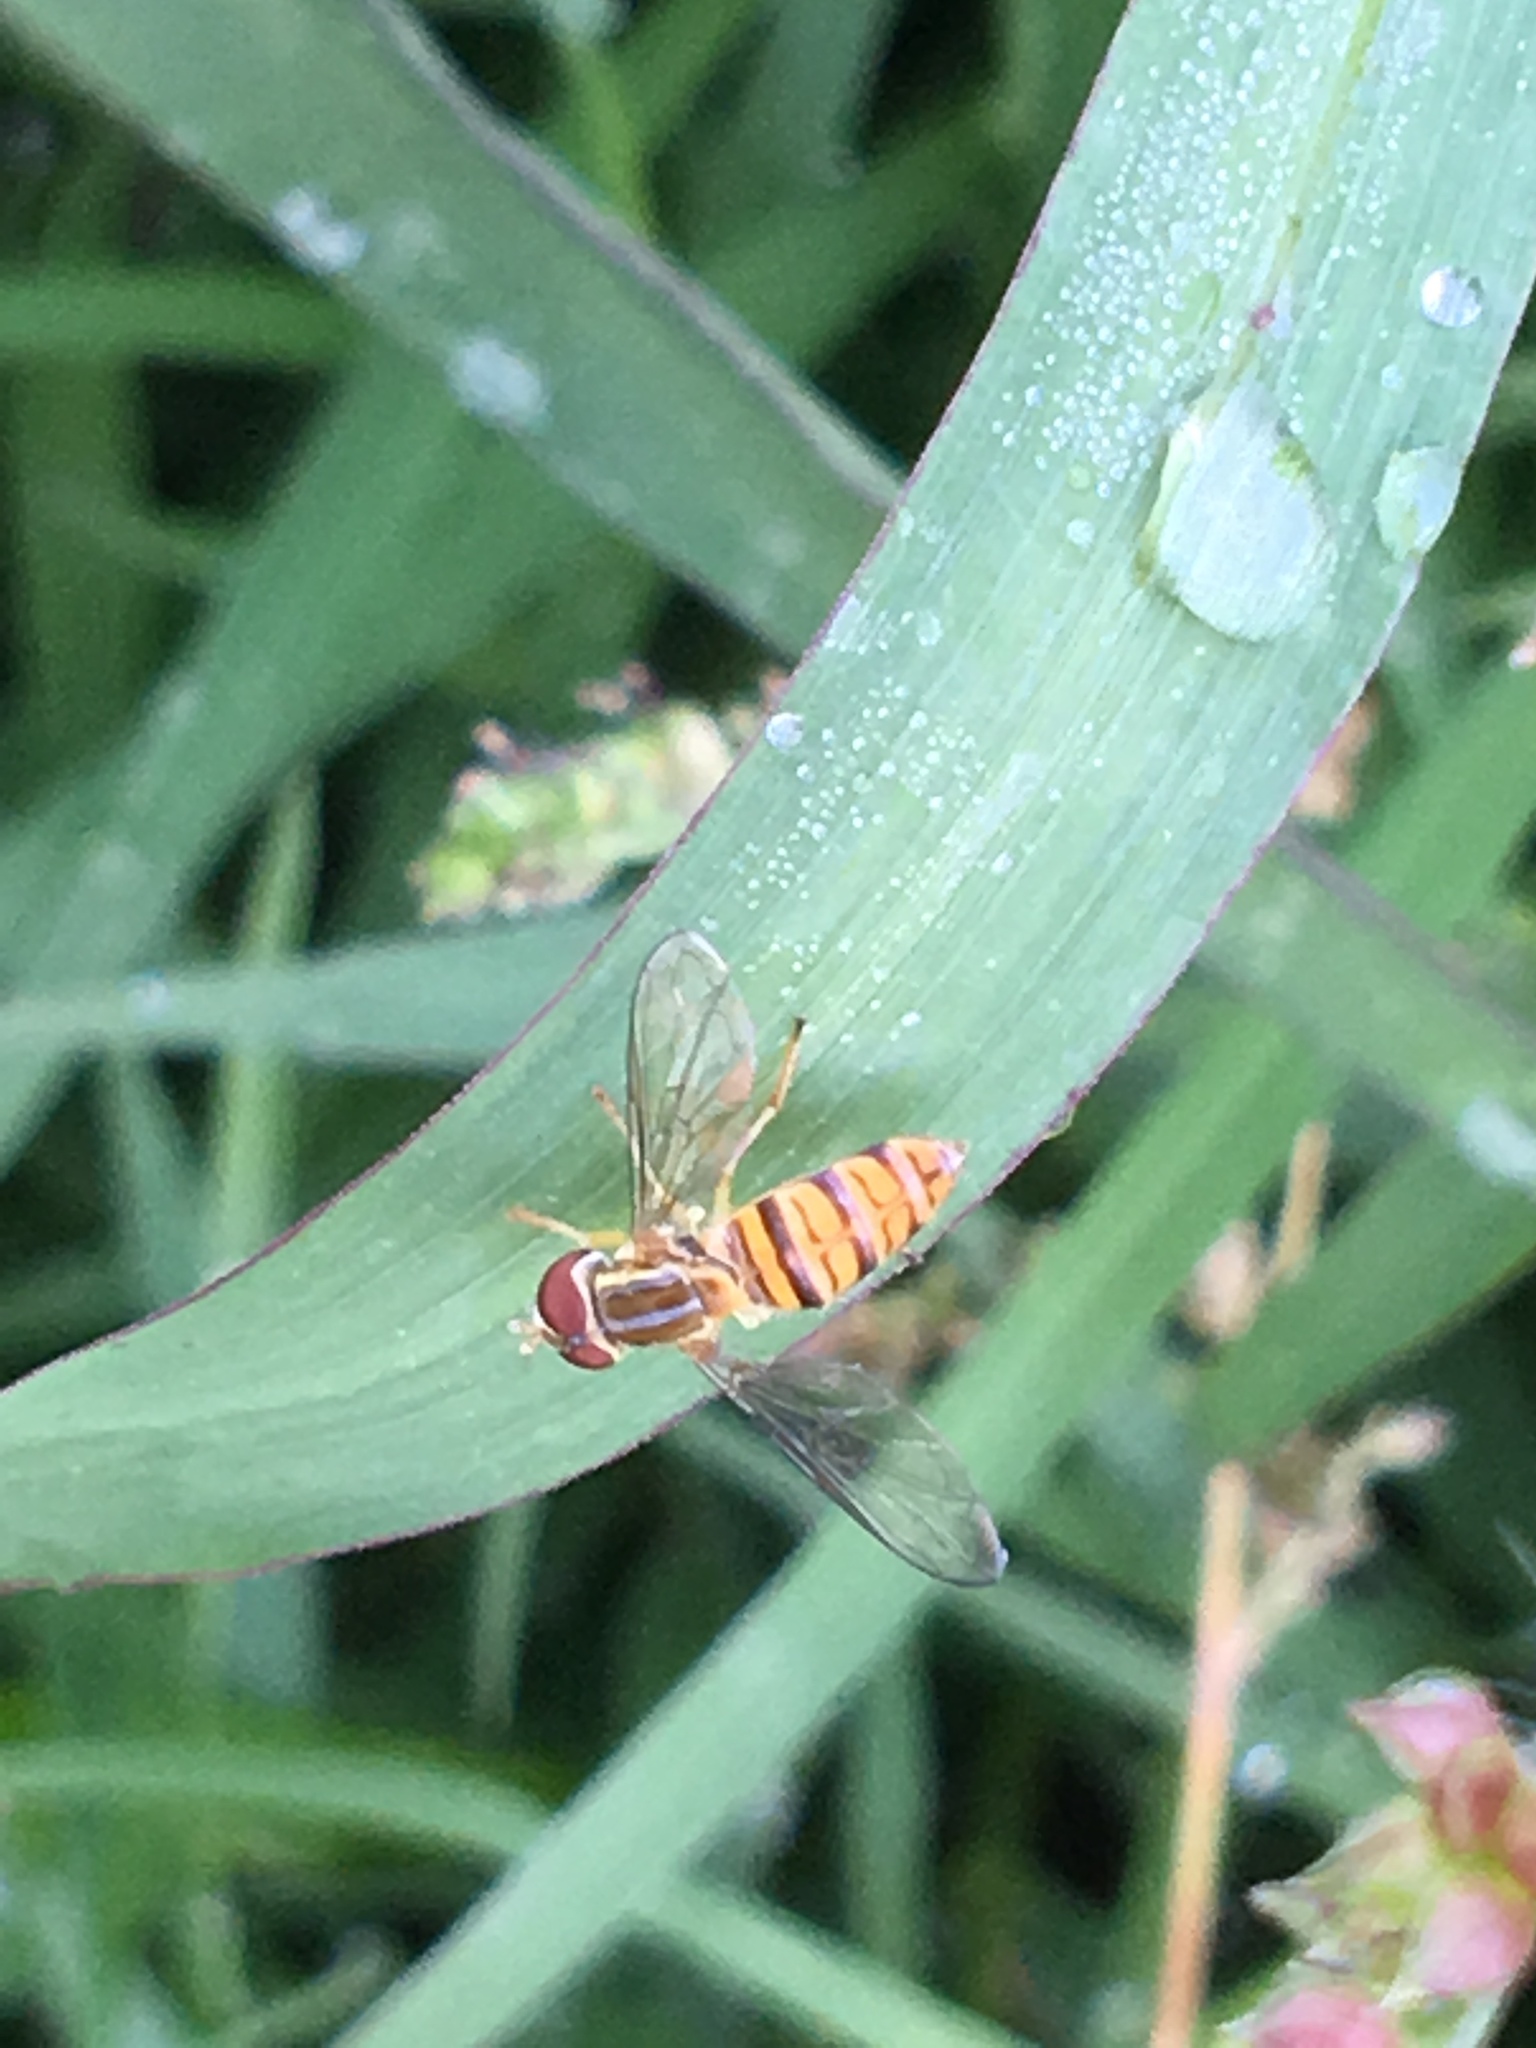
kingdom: Animalia
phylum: Arthropoda
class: Insecta
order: Diptera
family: Syrphidae
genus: Toxomerus
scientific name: Toxomerus politus
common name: Maize calligrapher
